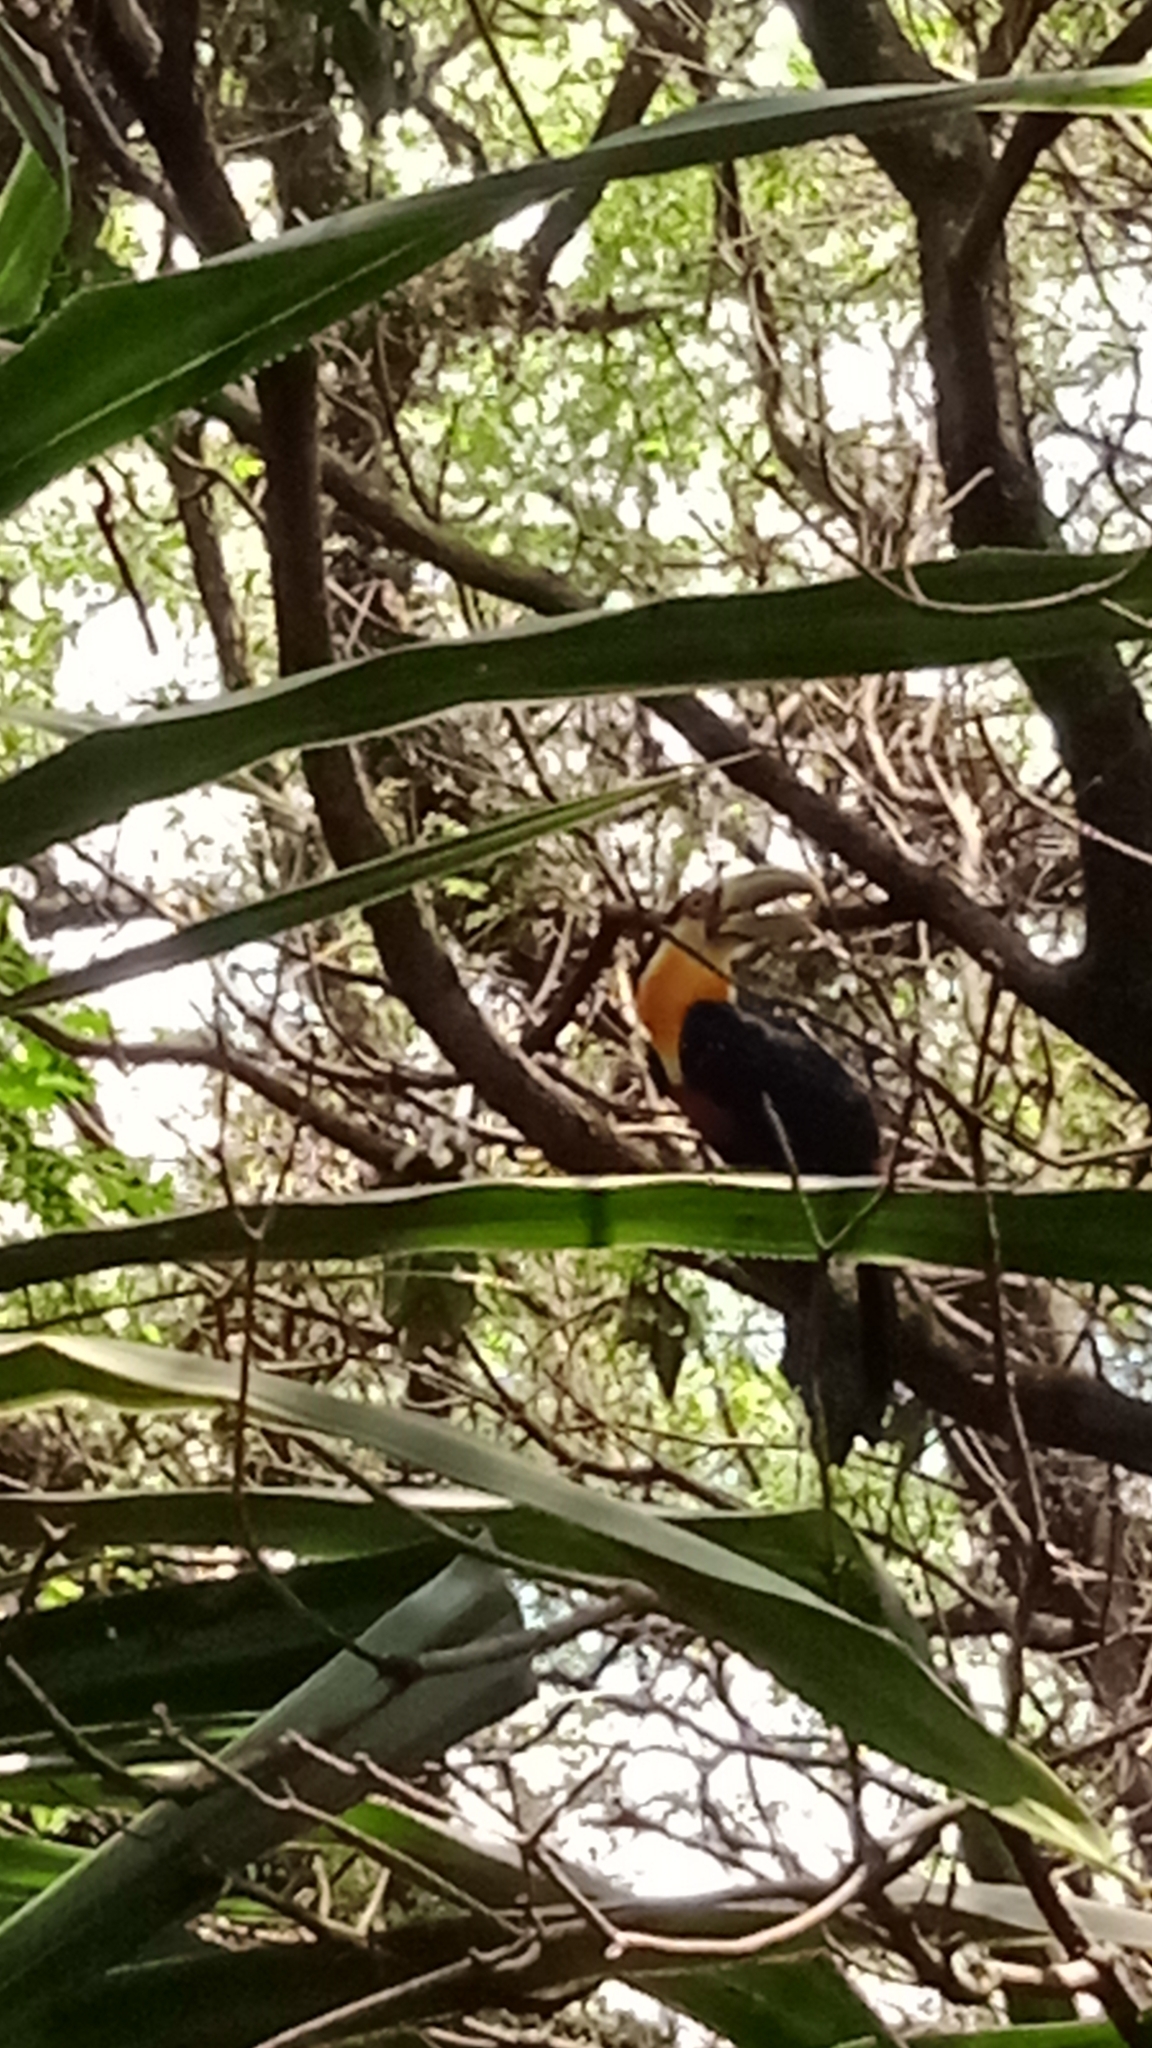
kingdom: Animalia
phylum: Chordata
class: Aves
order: Piciformes
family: Ramphastidae
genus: Ramphastos
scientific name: Ramphastos dicolorus
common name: Green-billed toucan
